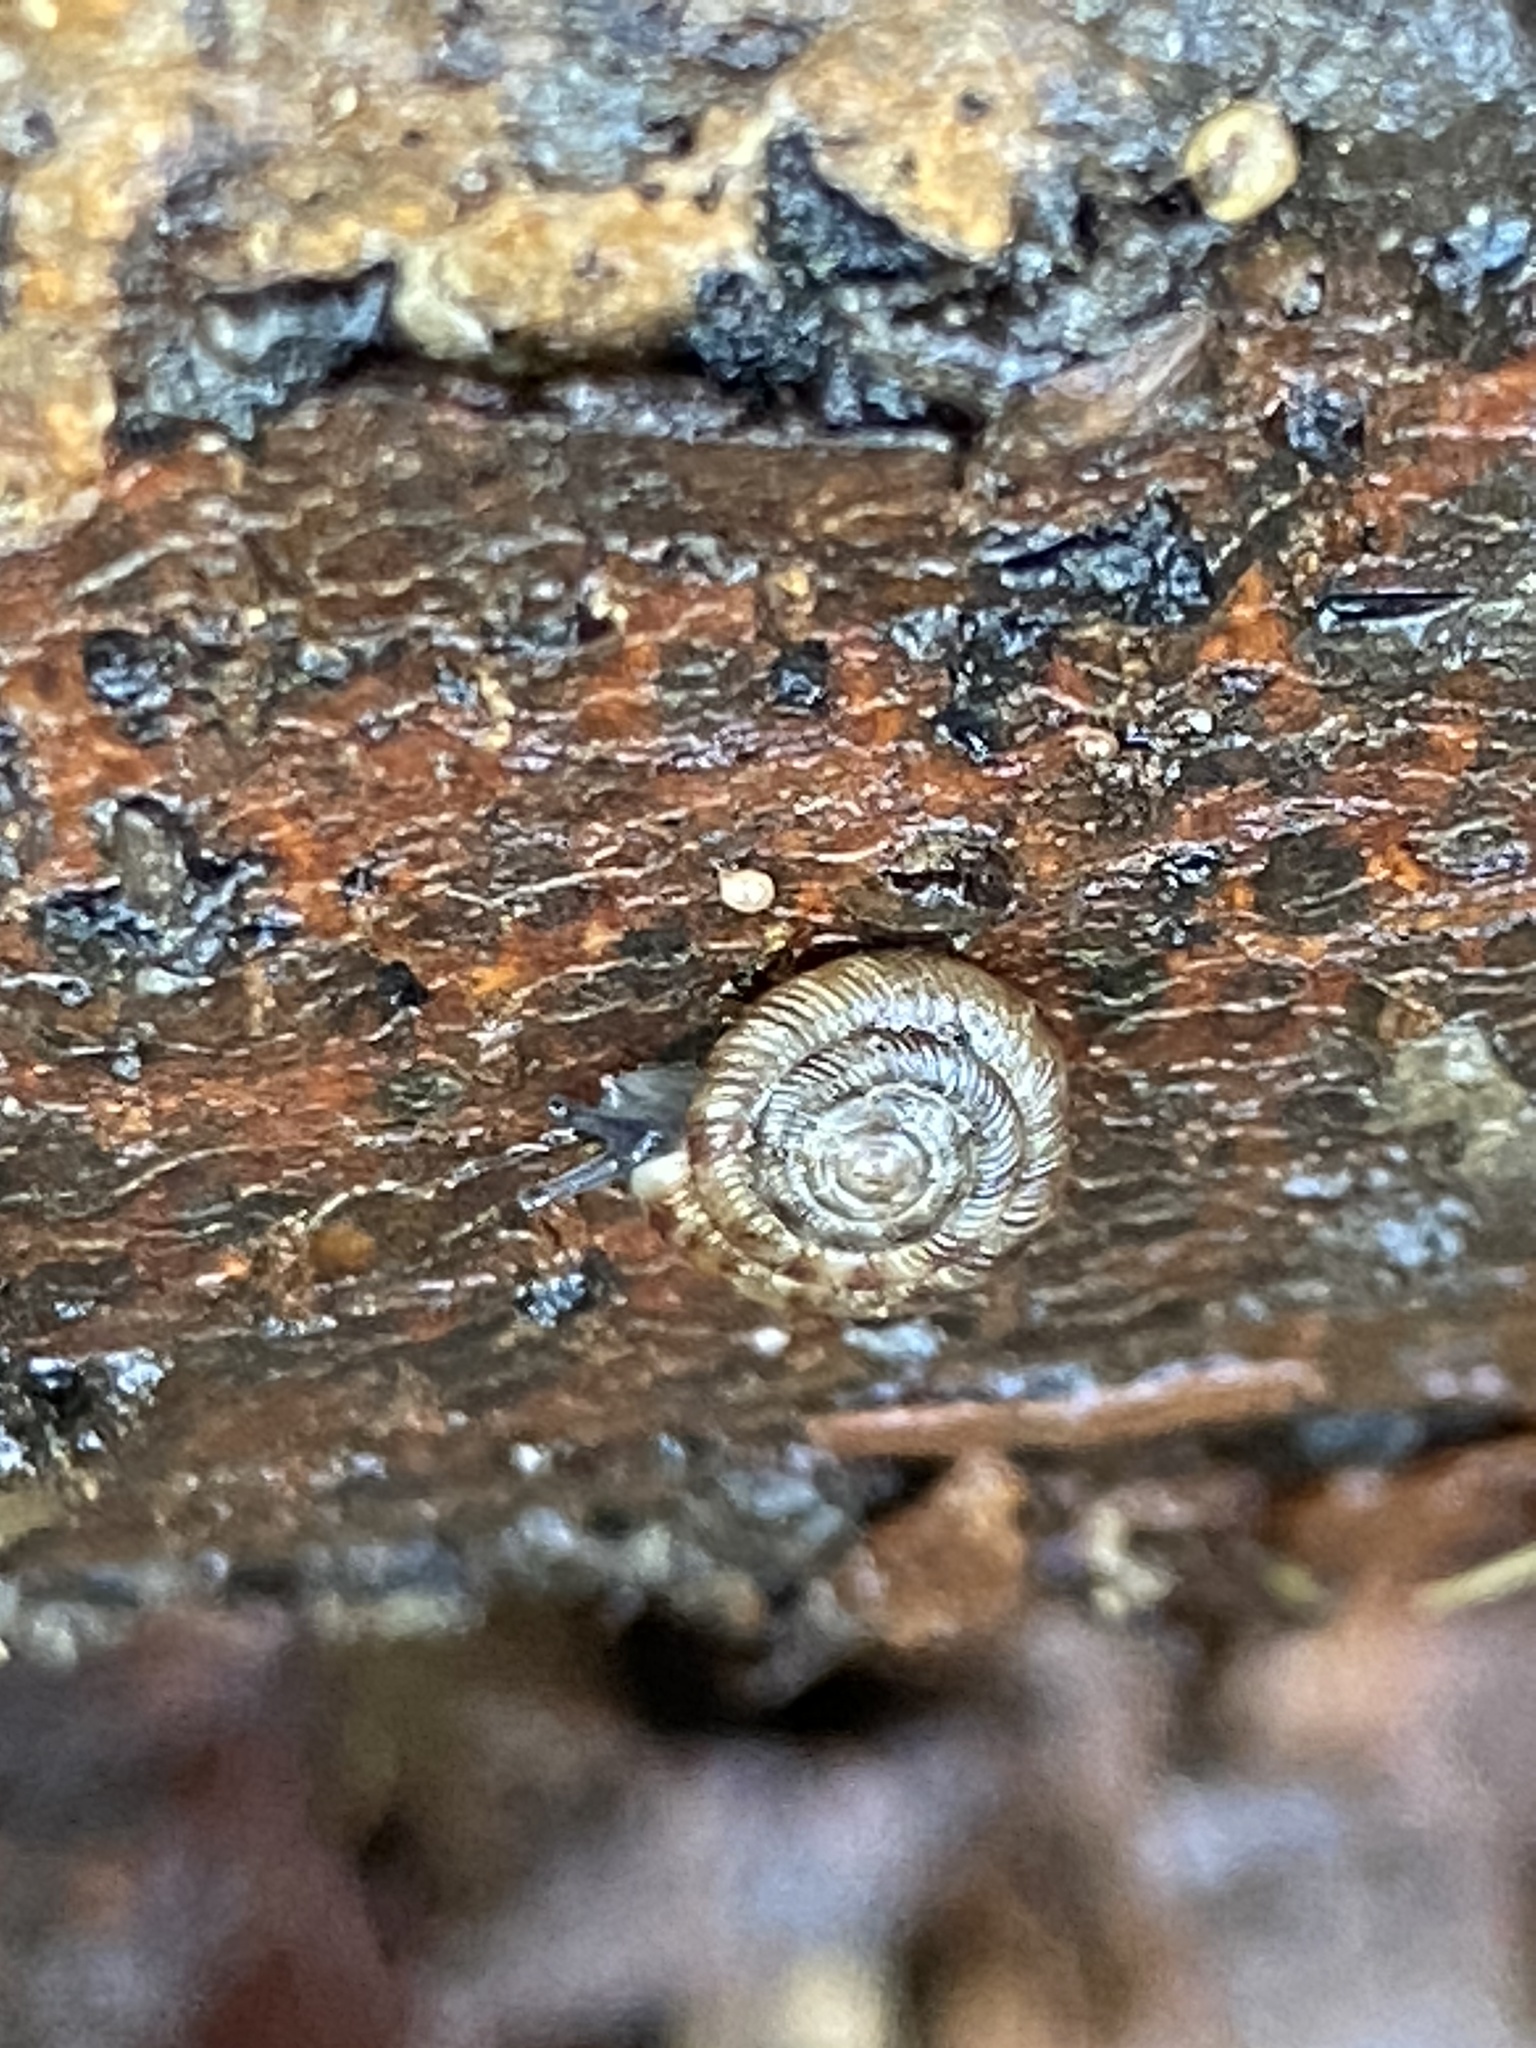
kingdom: Animalia
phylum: Mollusca
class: Gastropoda
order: Stylommatophora
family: Discidae
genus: Discus
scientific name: Discus rotundatus
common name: Rounded snail
